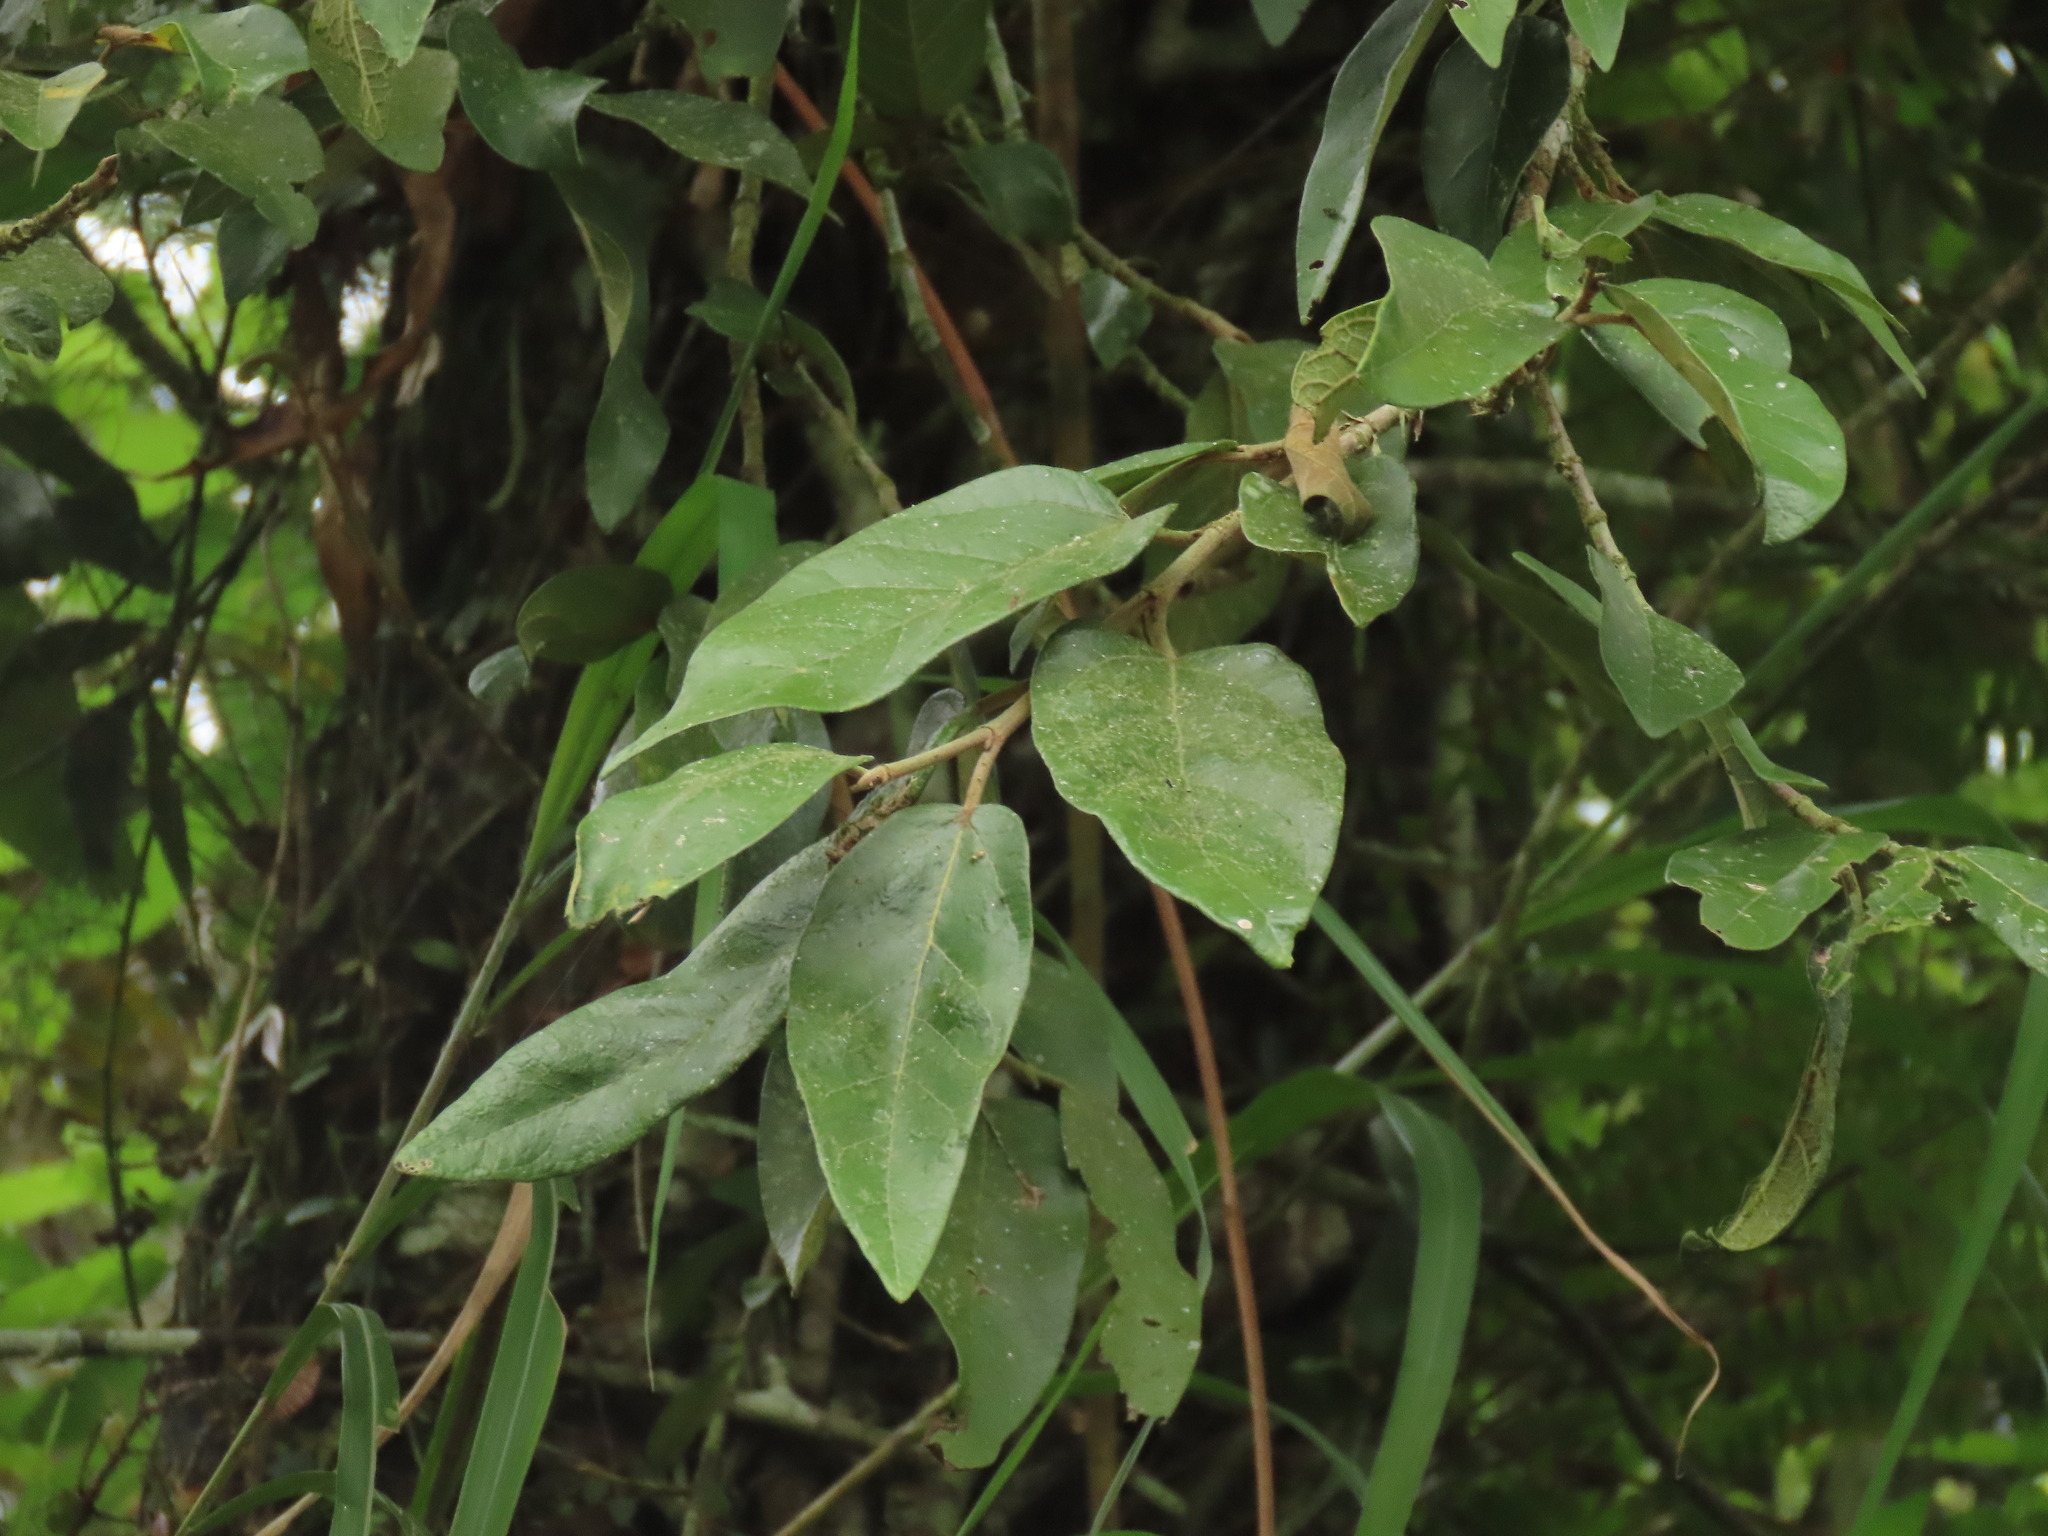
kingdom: Plantae
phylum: Tracheophyta
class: Magnoliopsida
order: Rosales
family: Moraceae
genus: Ficus
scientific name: Ficus pumila
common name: Climbingfig
